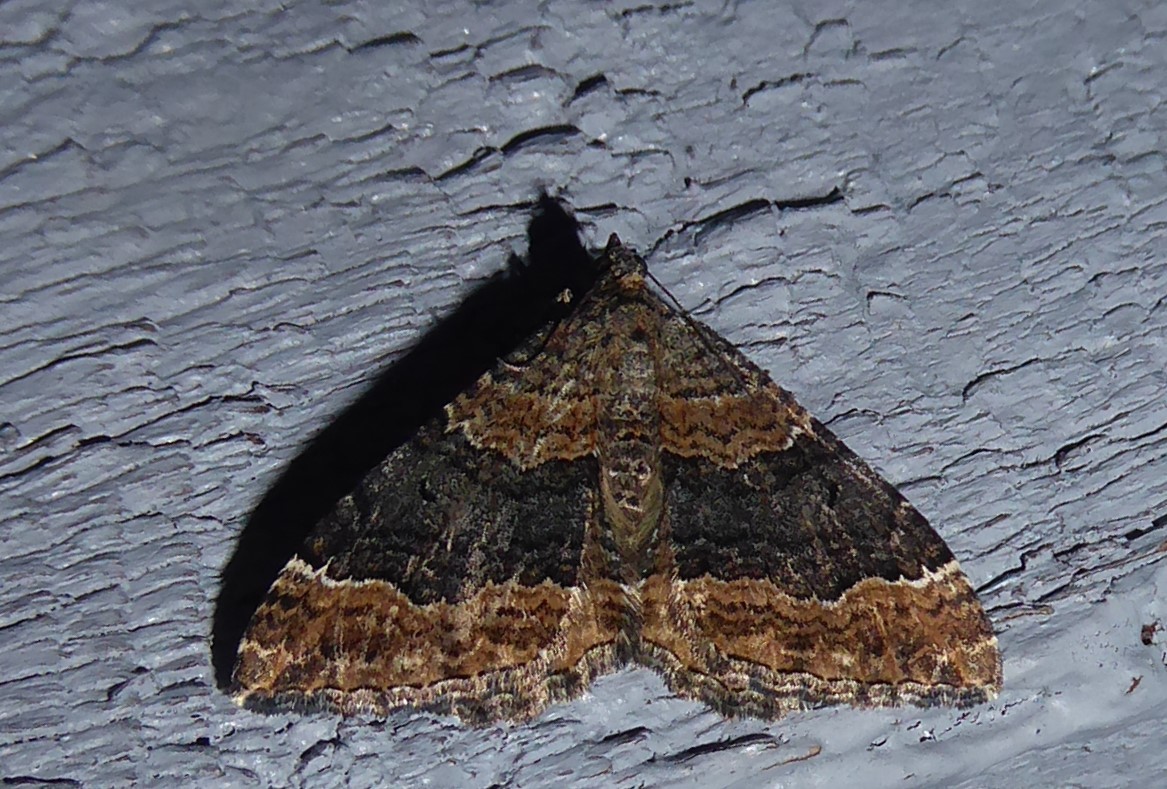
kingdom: Animalia
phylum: Arthropoda
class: Insecta
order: Lepidoptera
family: Geometridae
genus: Hydriomena
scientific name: Hydriomena deltoidata
